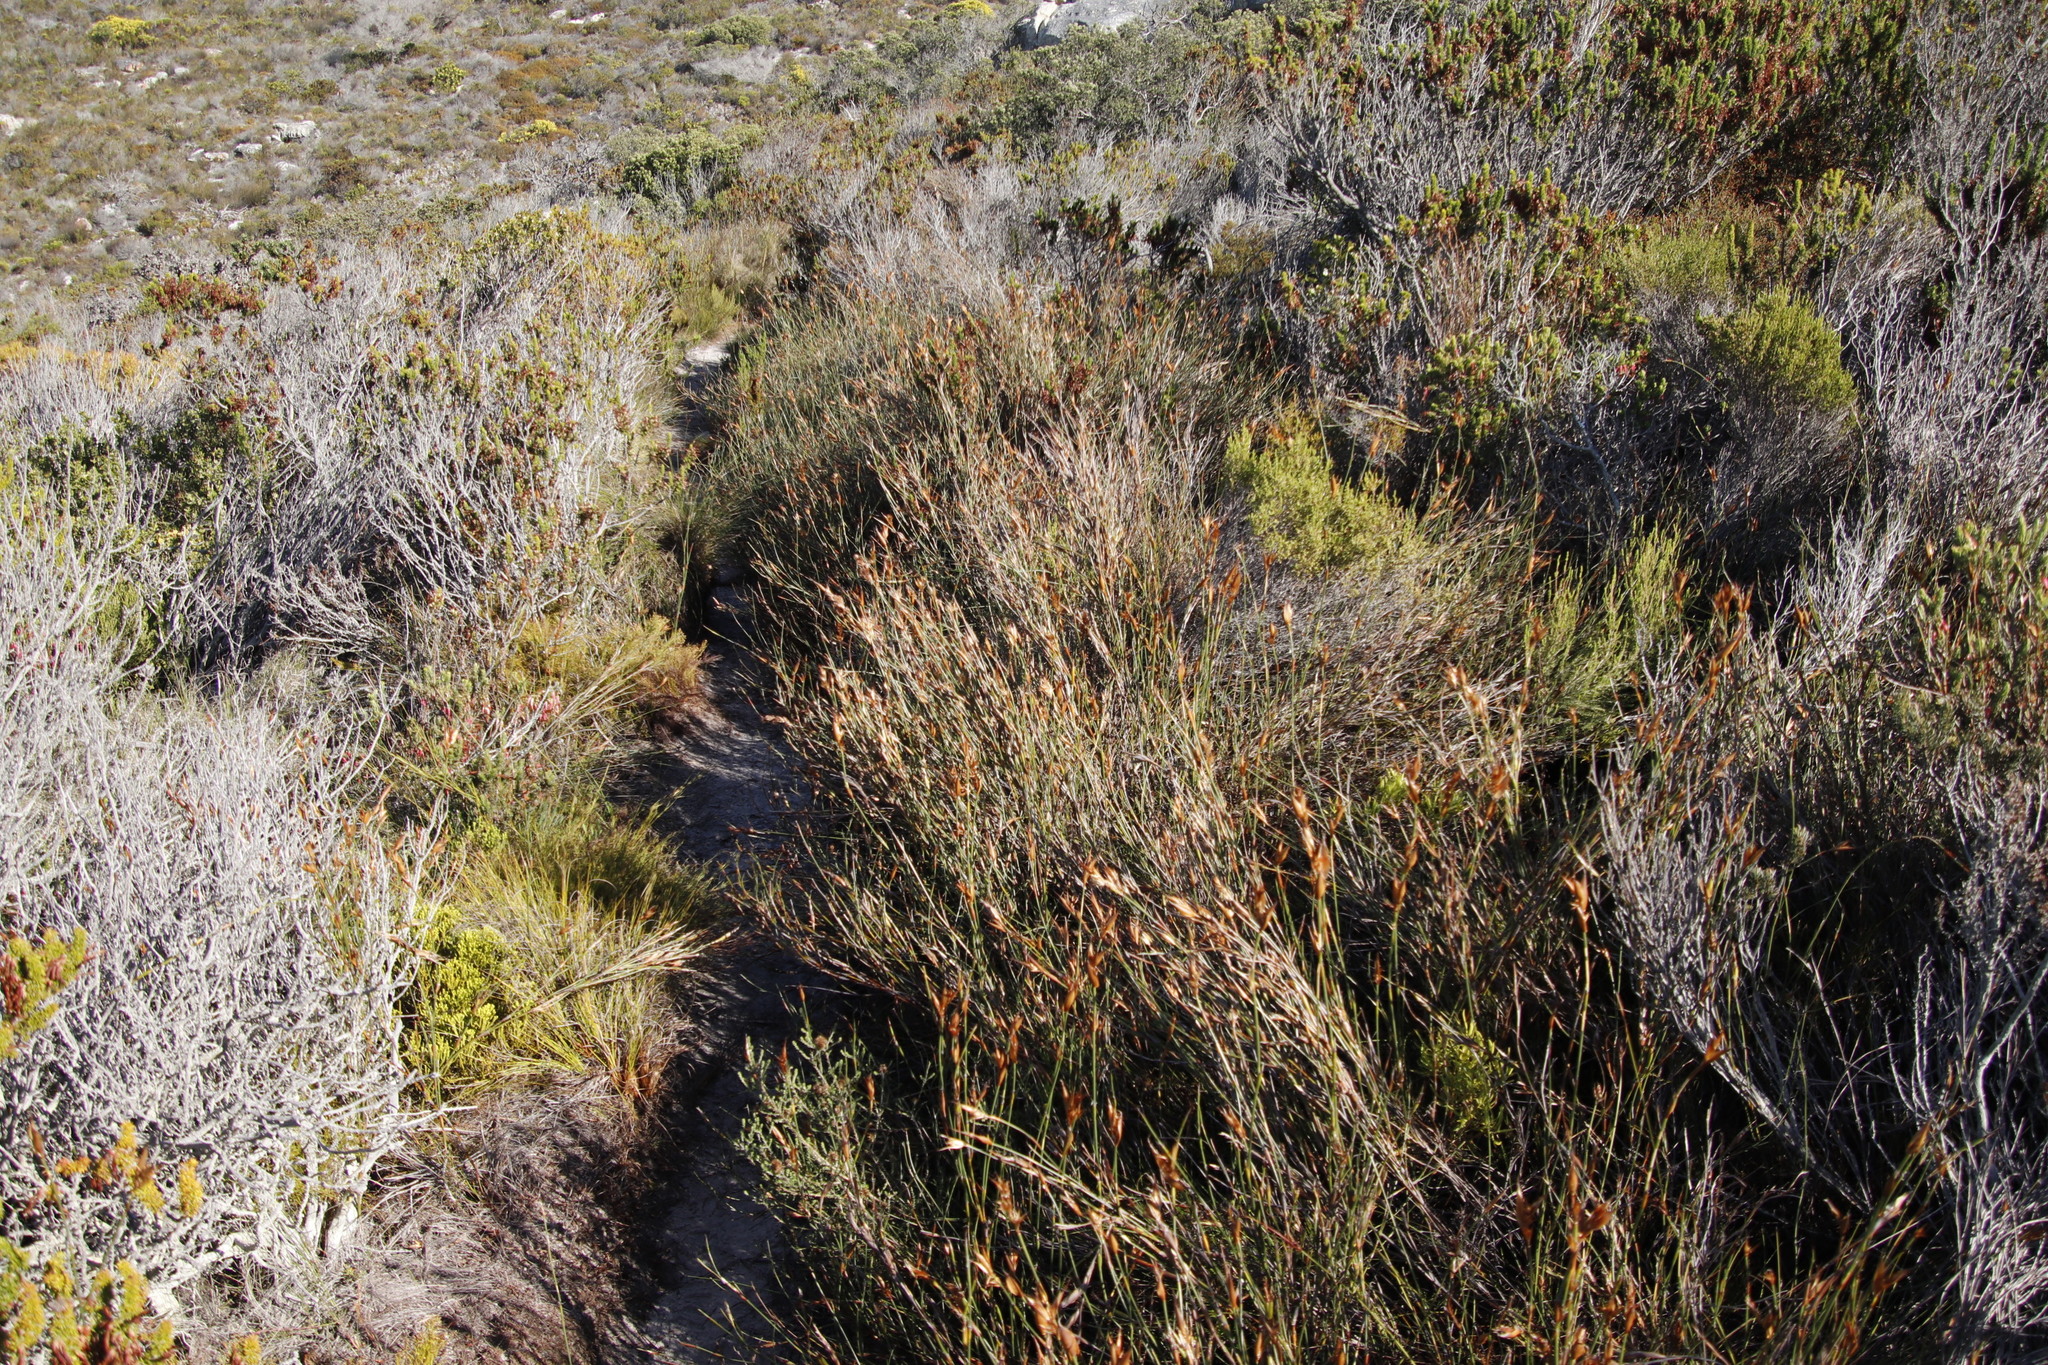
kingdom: Plantae
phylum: Tracheophyta
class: Liliopsida
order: Poales
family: Restionaceae
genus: Willdenowia
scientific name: Willdenowia teres
